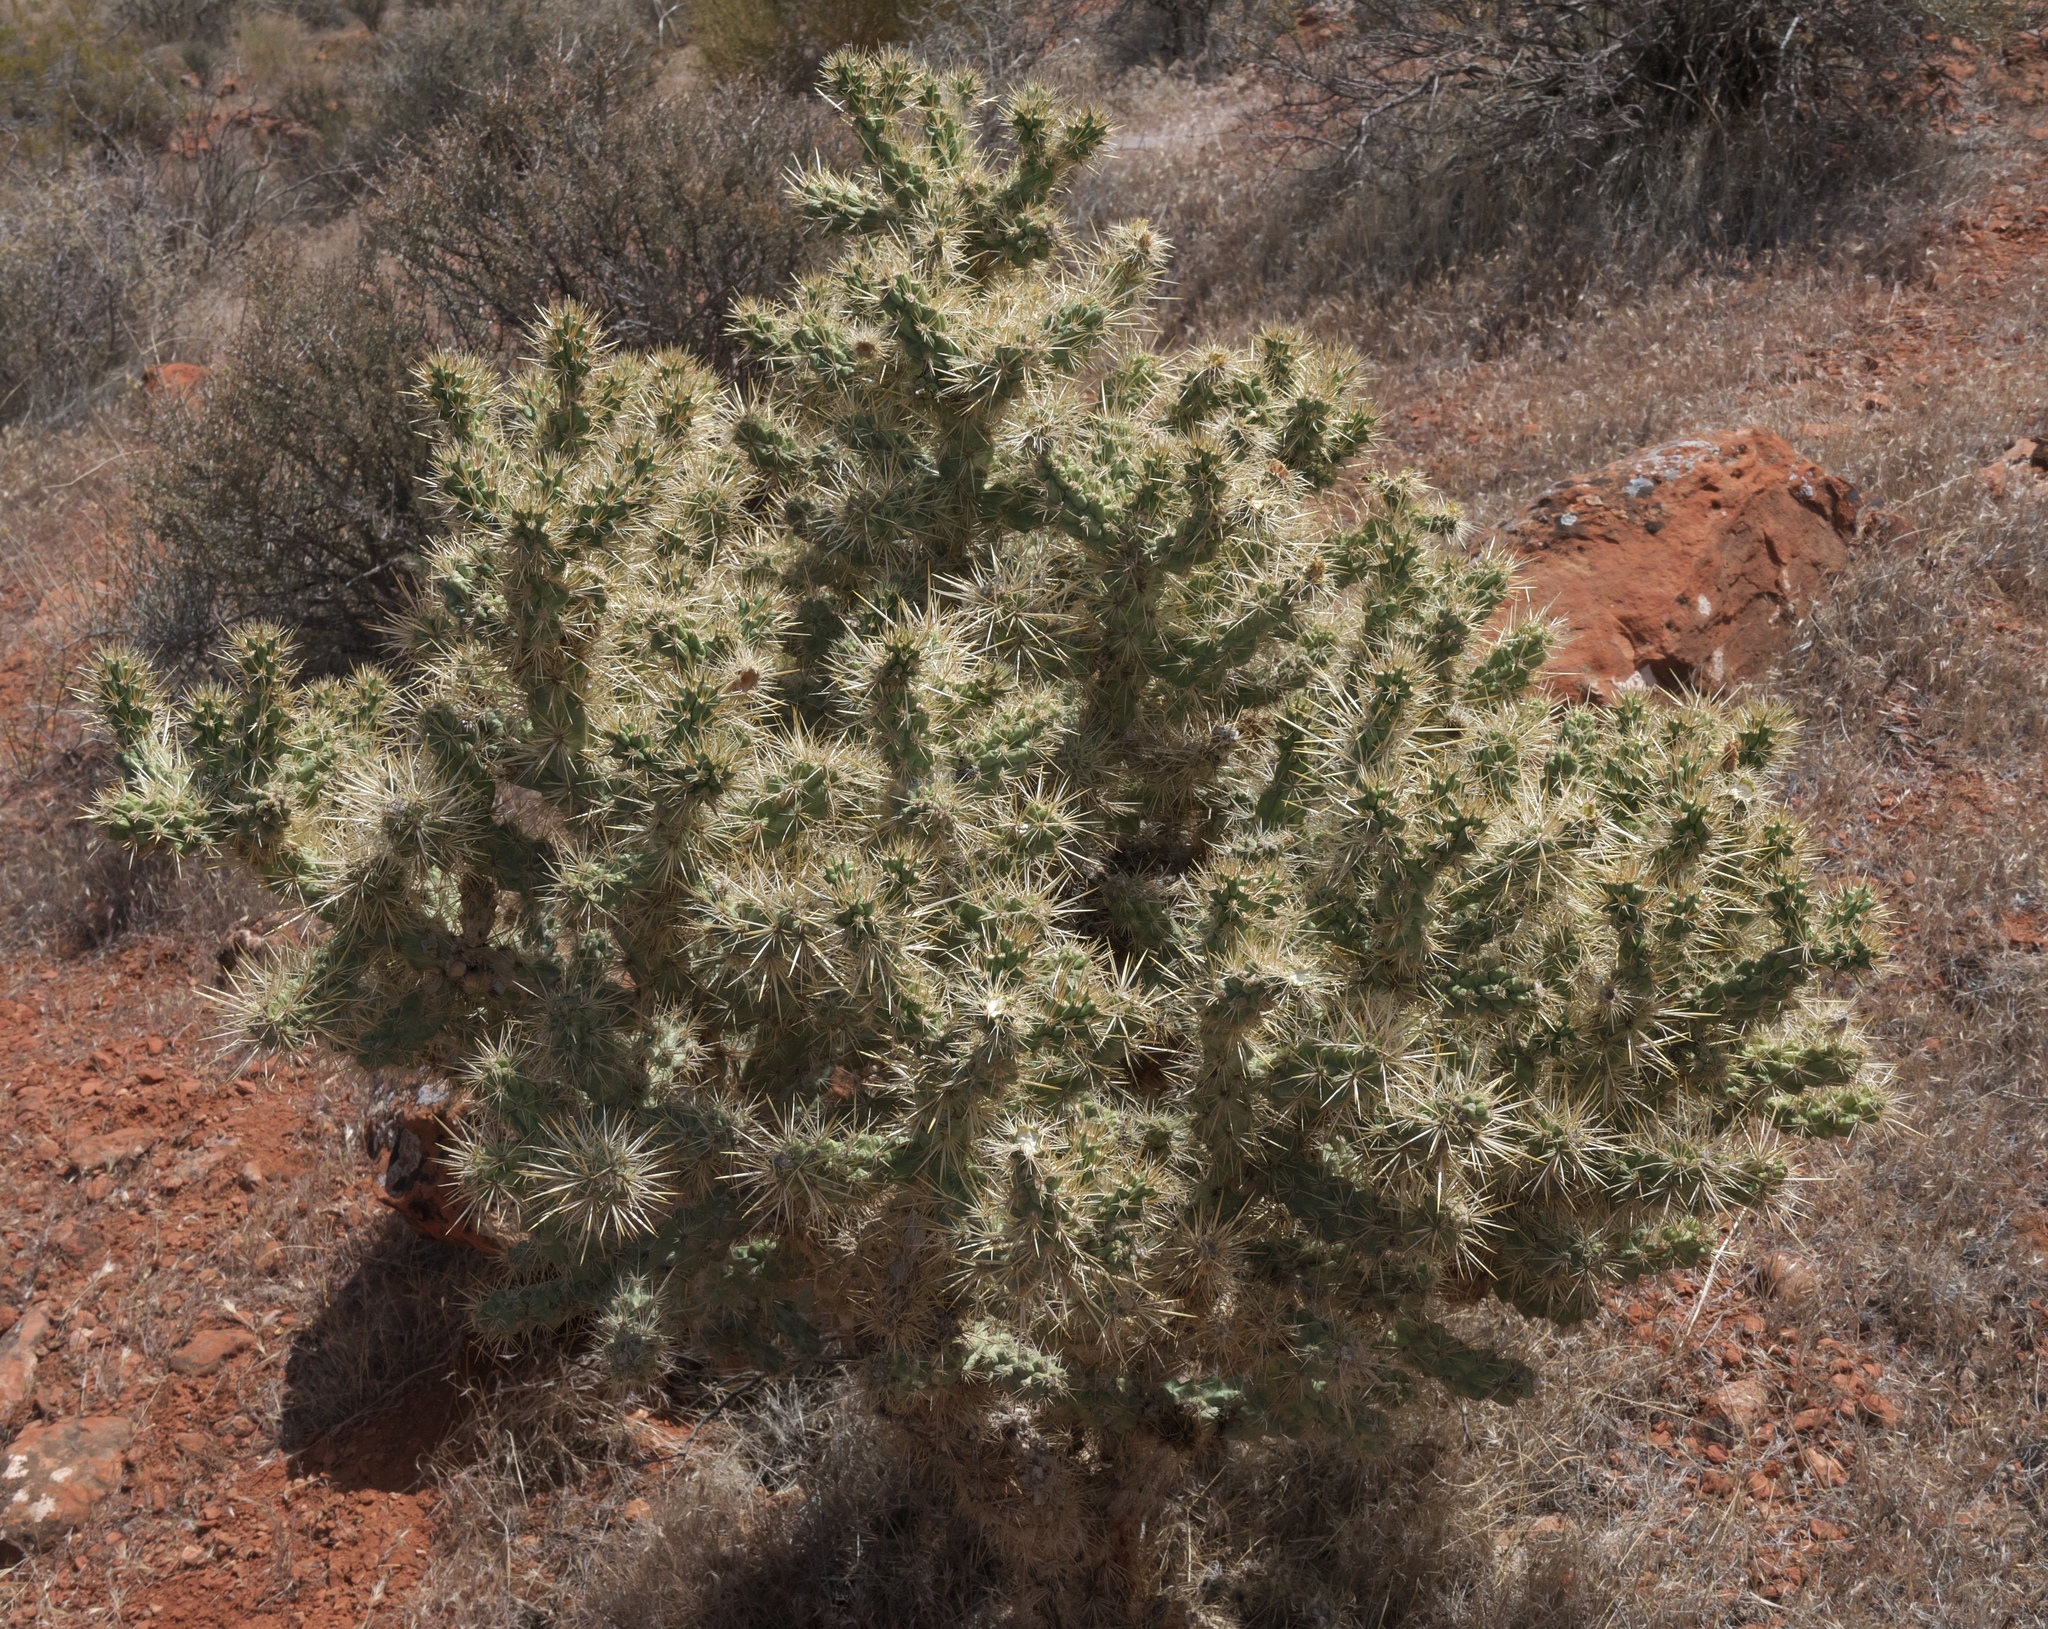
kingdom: Plantae
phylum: Tracheophyta
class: Magnoliopsida
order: Caryophyllales
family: Cactaceae
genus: Cylindropuntia
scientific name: Cylindropuntia echinocarpa
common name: Ground cholla
